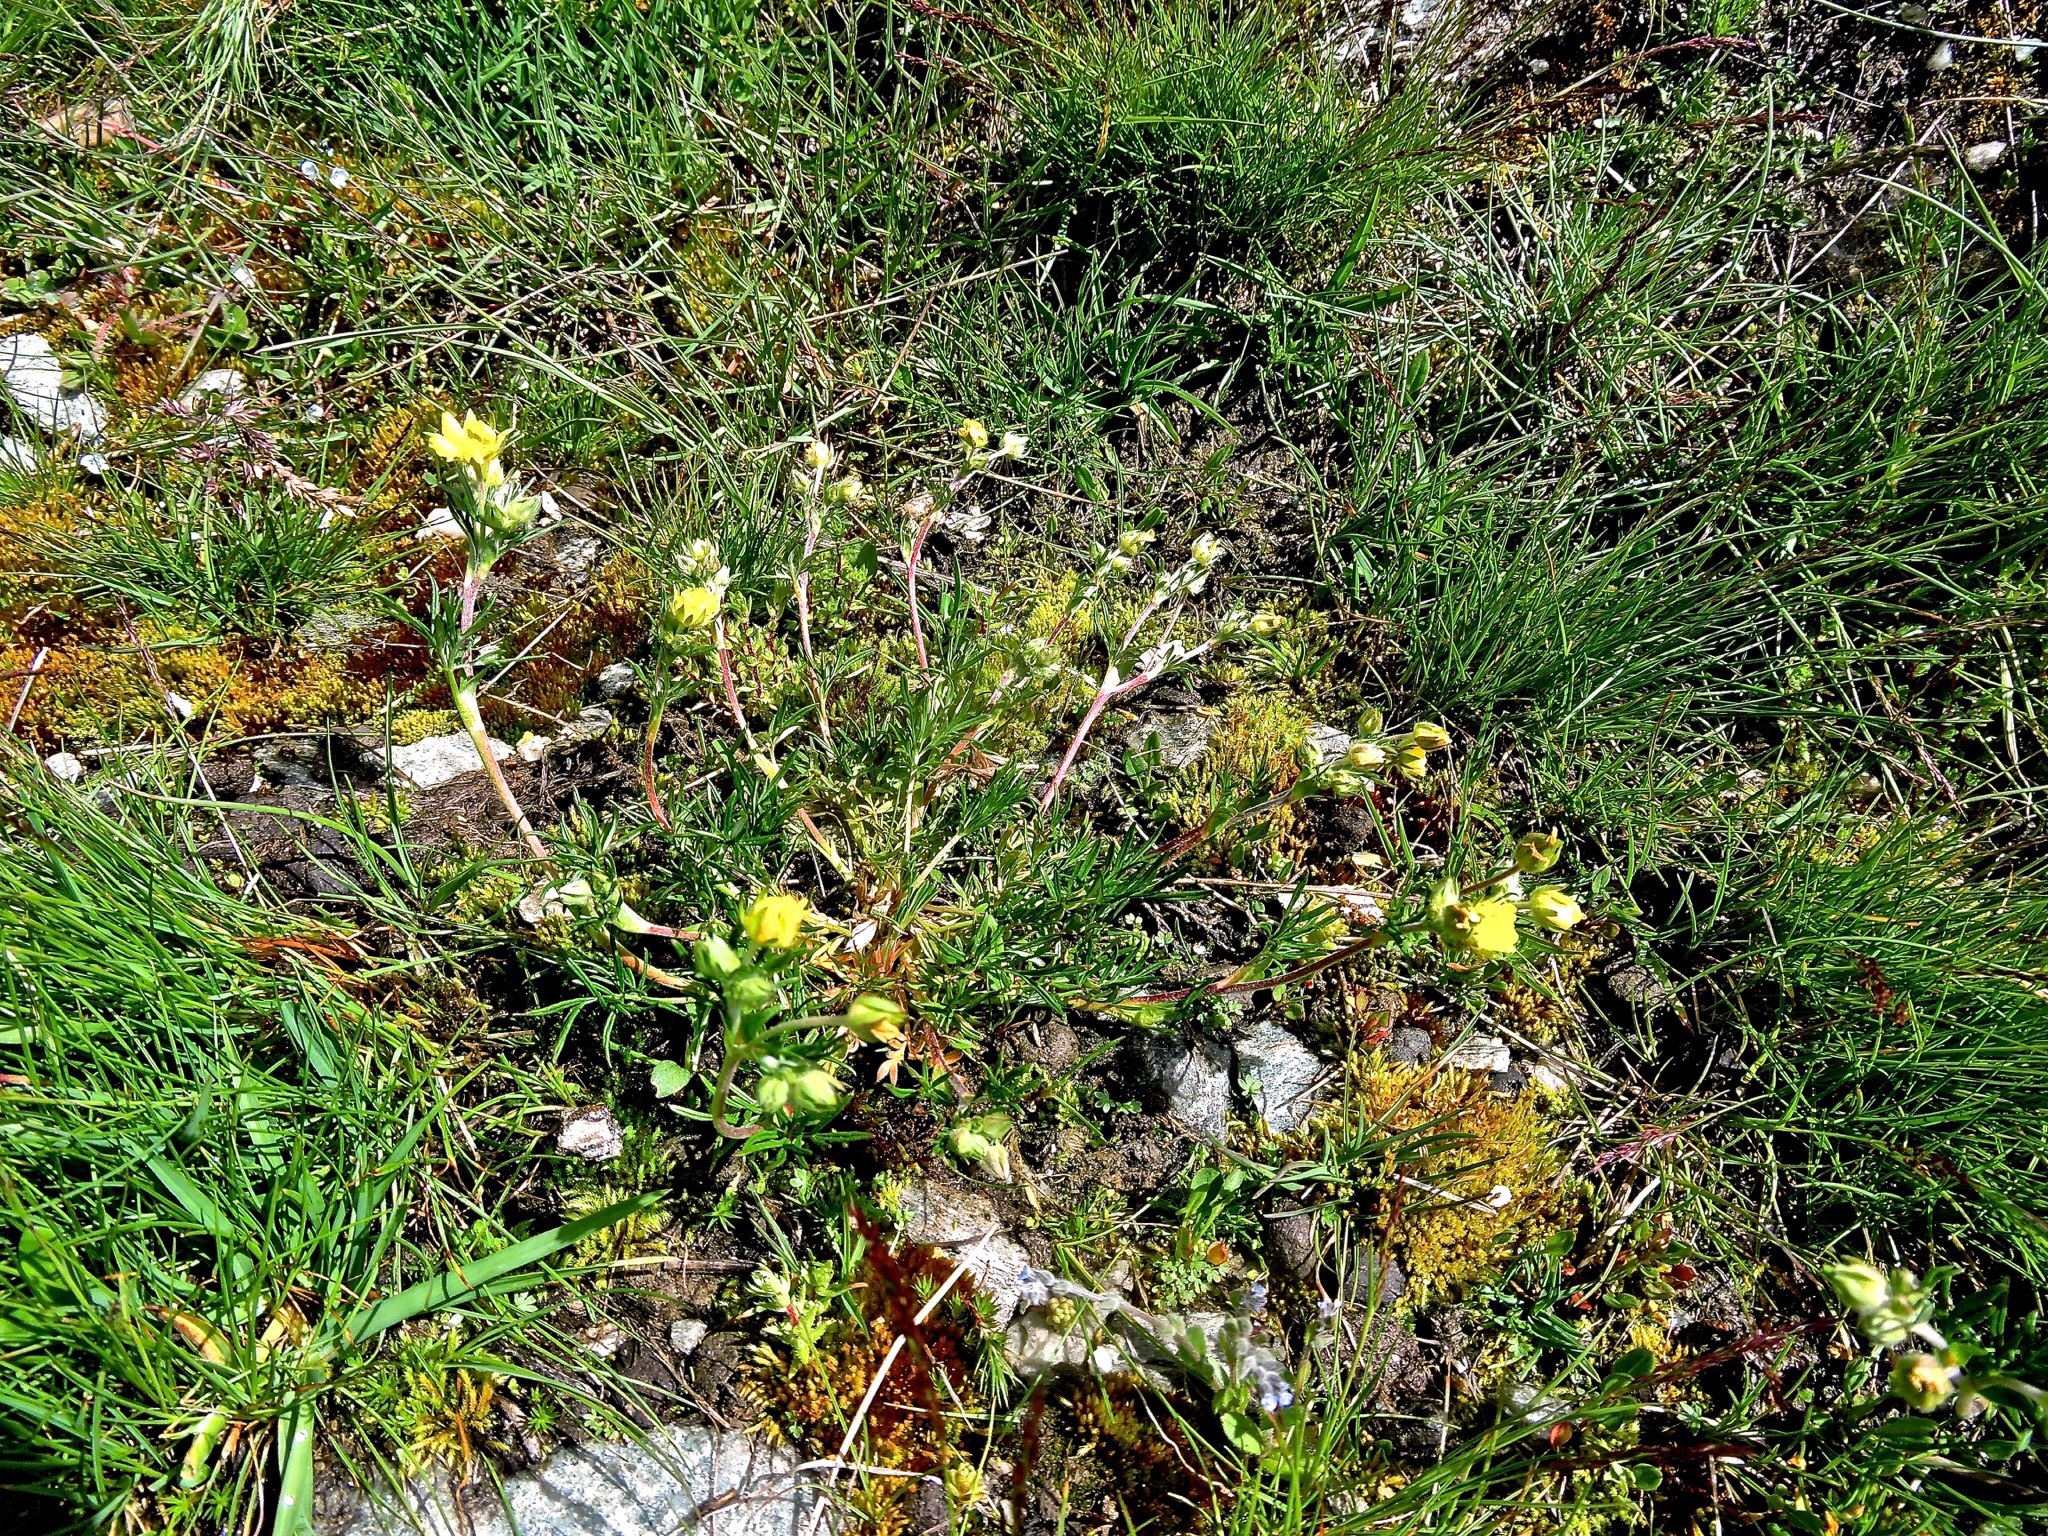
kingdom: Plantae
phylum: Tracheophyta
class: Magnoliopsida
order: Rosales
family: Rosaceae
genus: Potentilla
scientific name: Potentilla multifida
